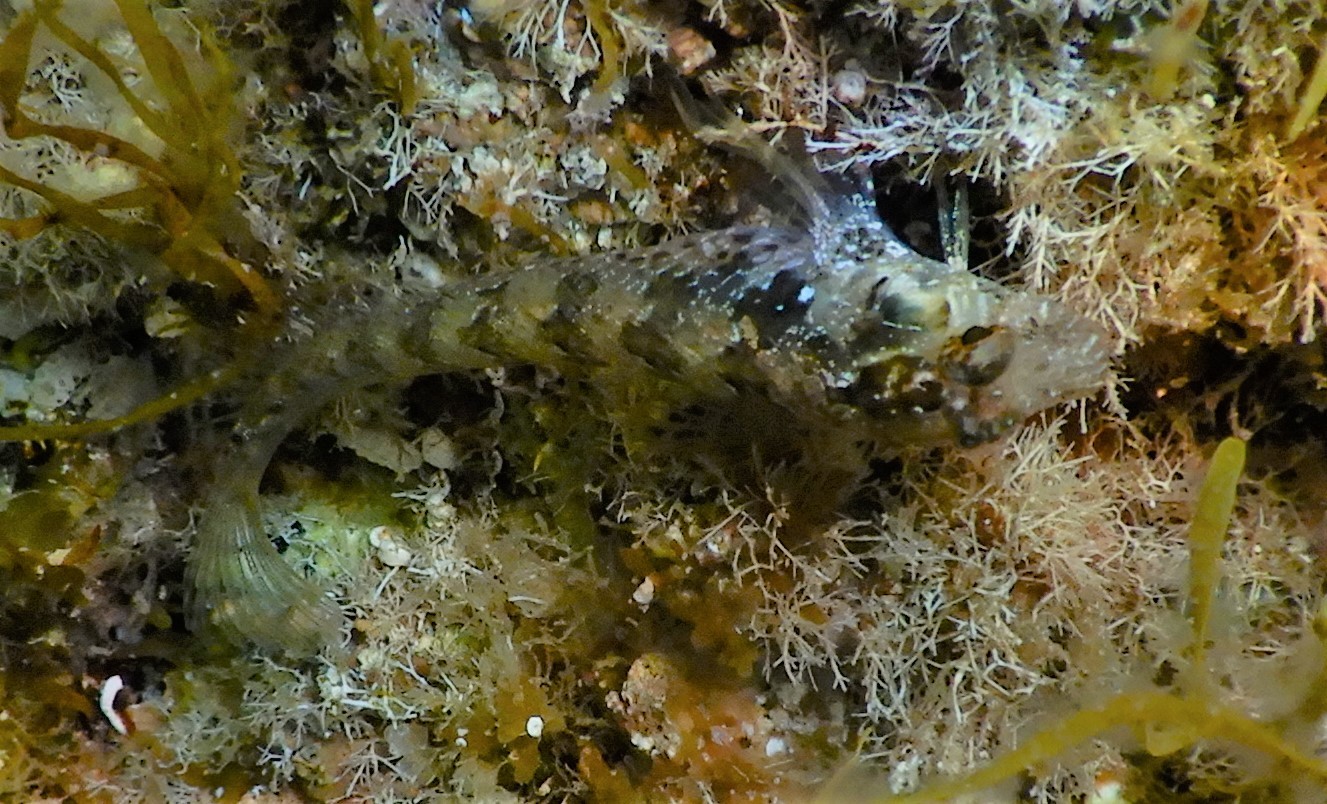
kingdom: Animalia
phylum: Chordata
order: Perciformes
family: Blenniidae
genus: Parablennius
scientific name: Parablennius incognitus
